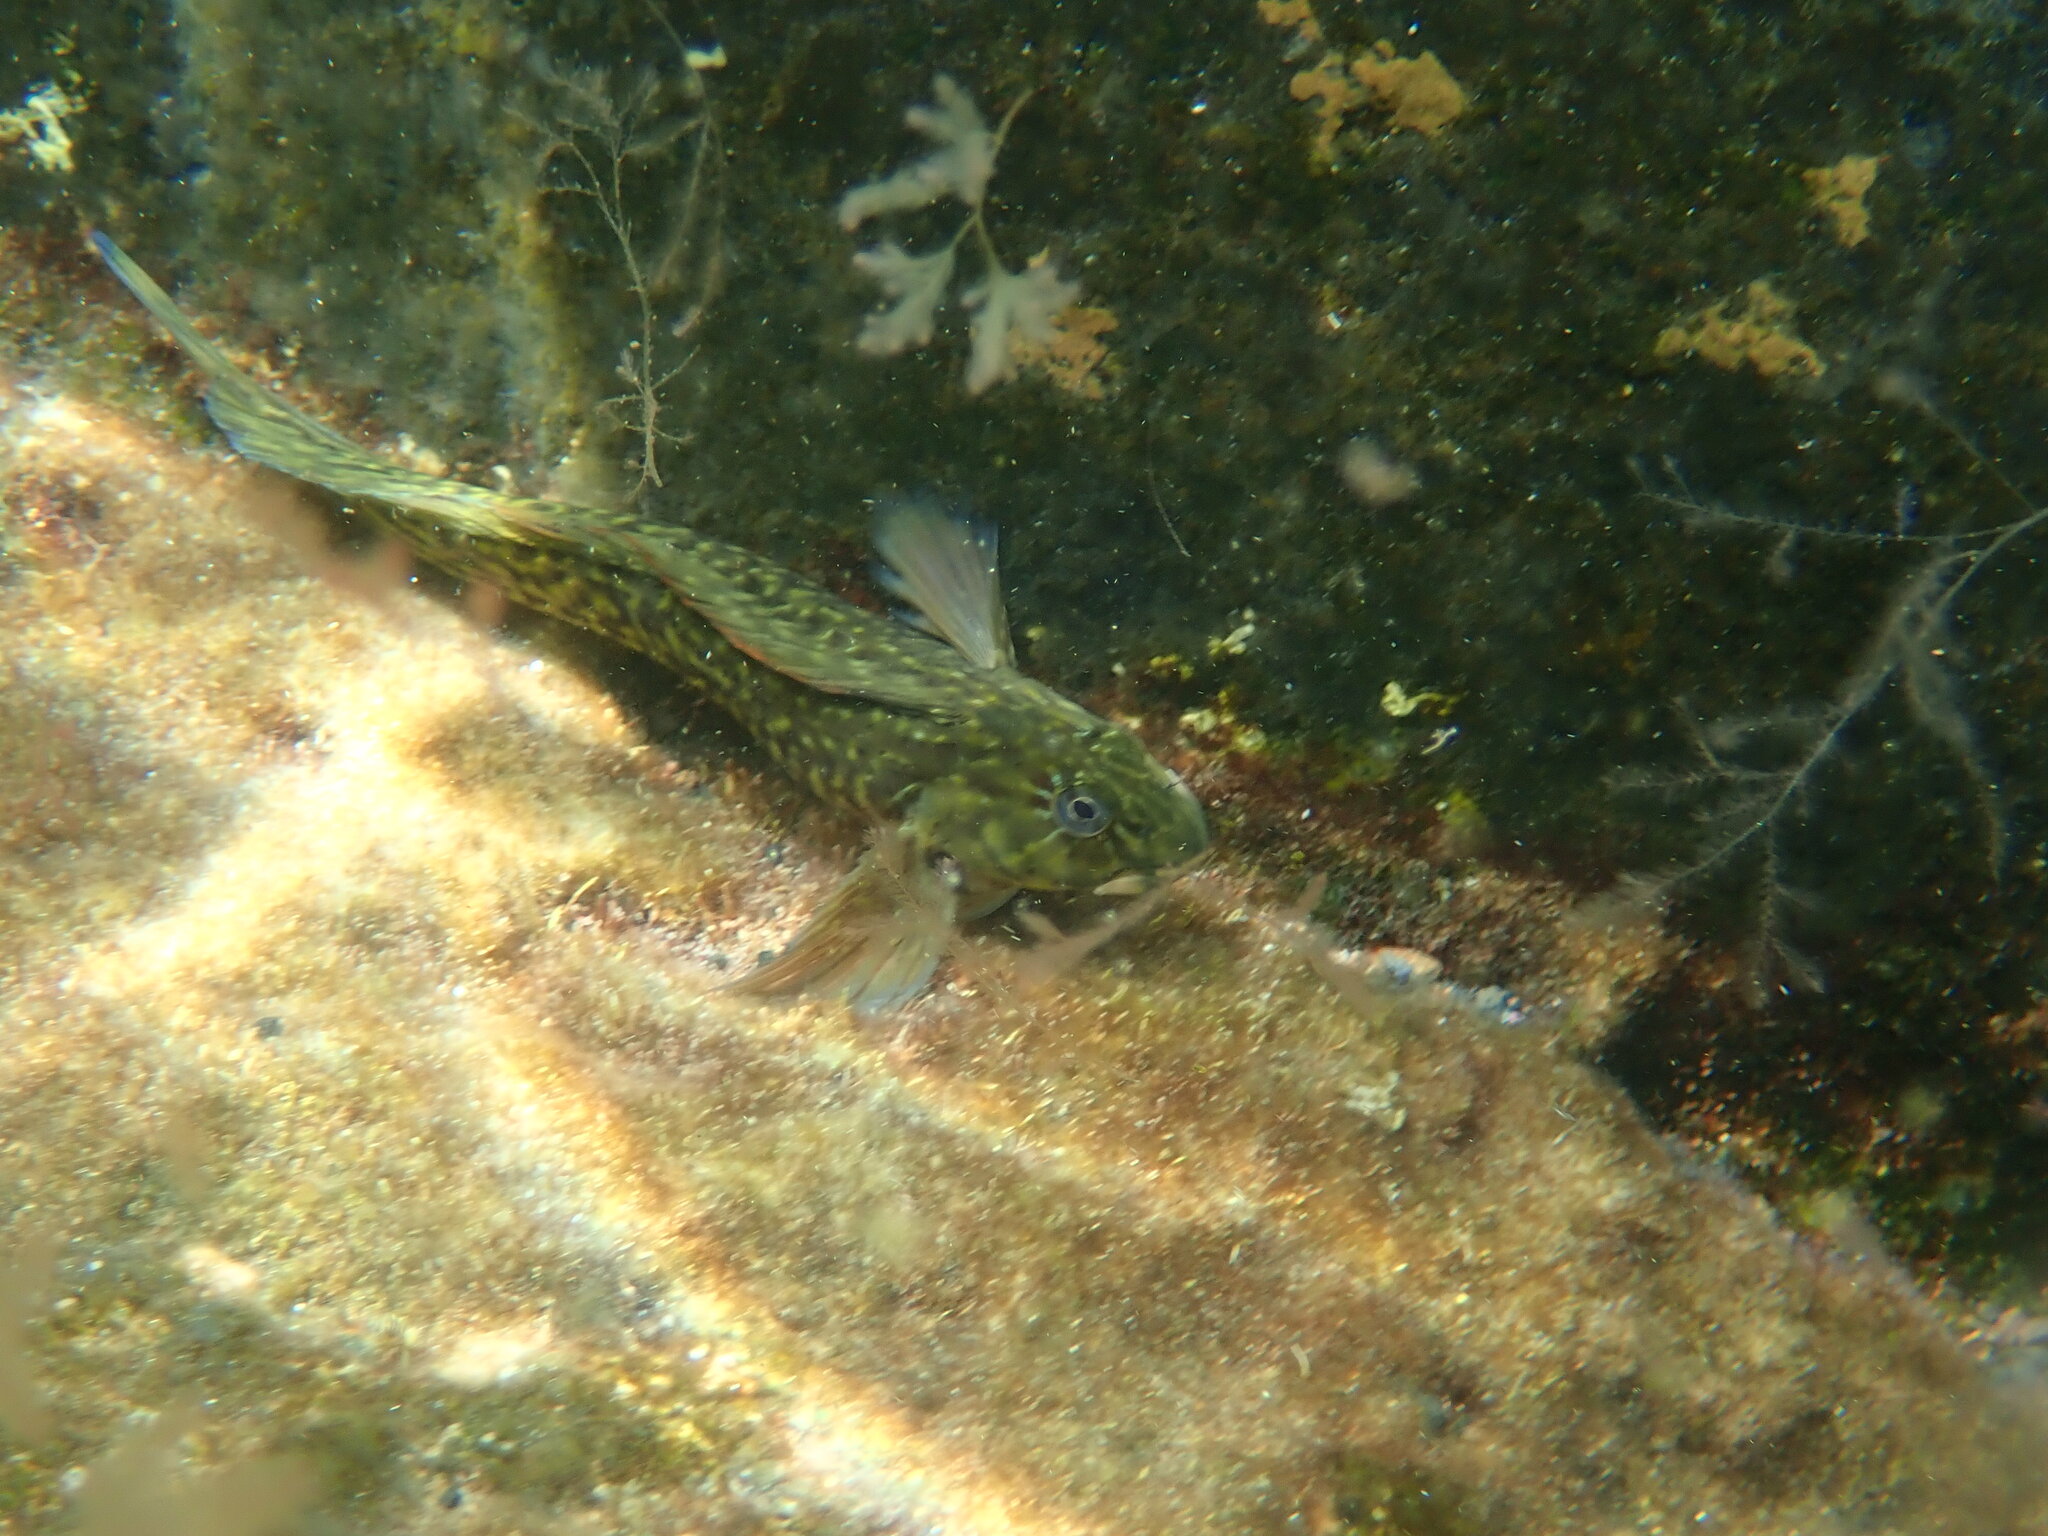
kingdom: Animalia
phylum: Chordata
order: Perciformes
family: Blenniidae
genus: Parablennius
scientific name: Parablennius parvicornis
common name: Rock-pool blenny
